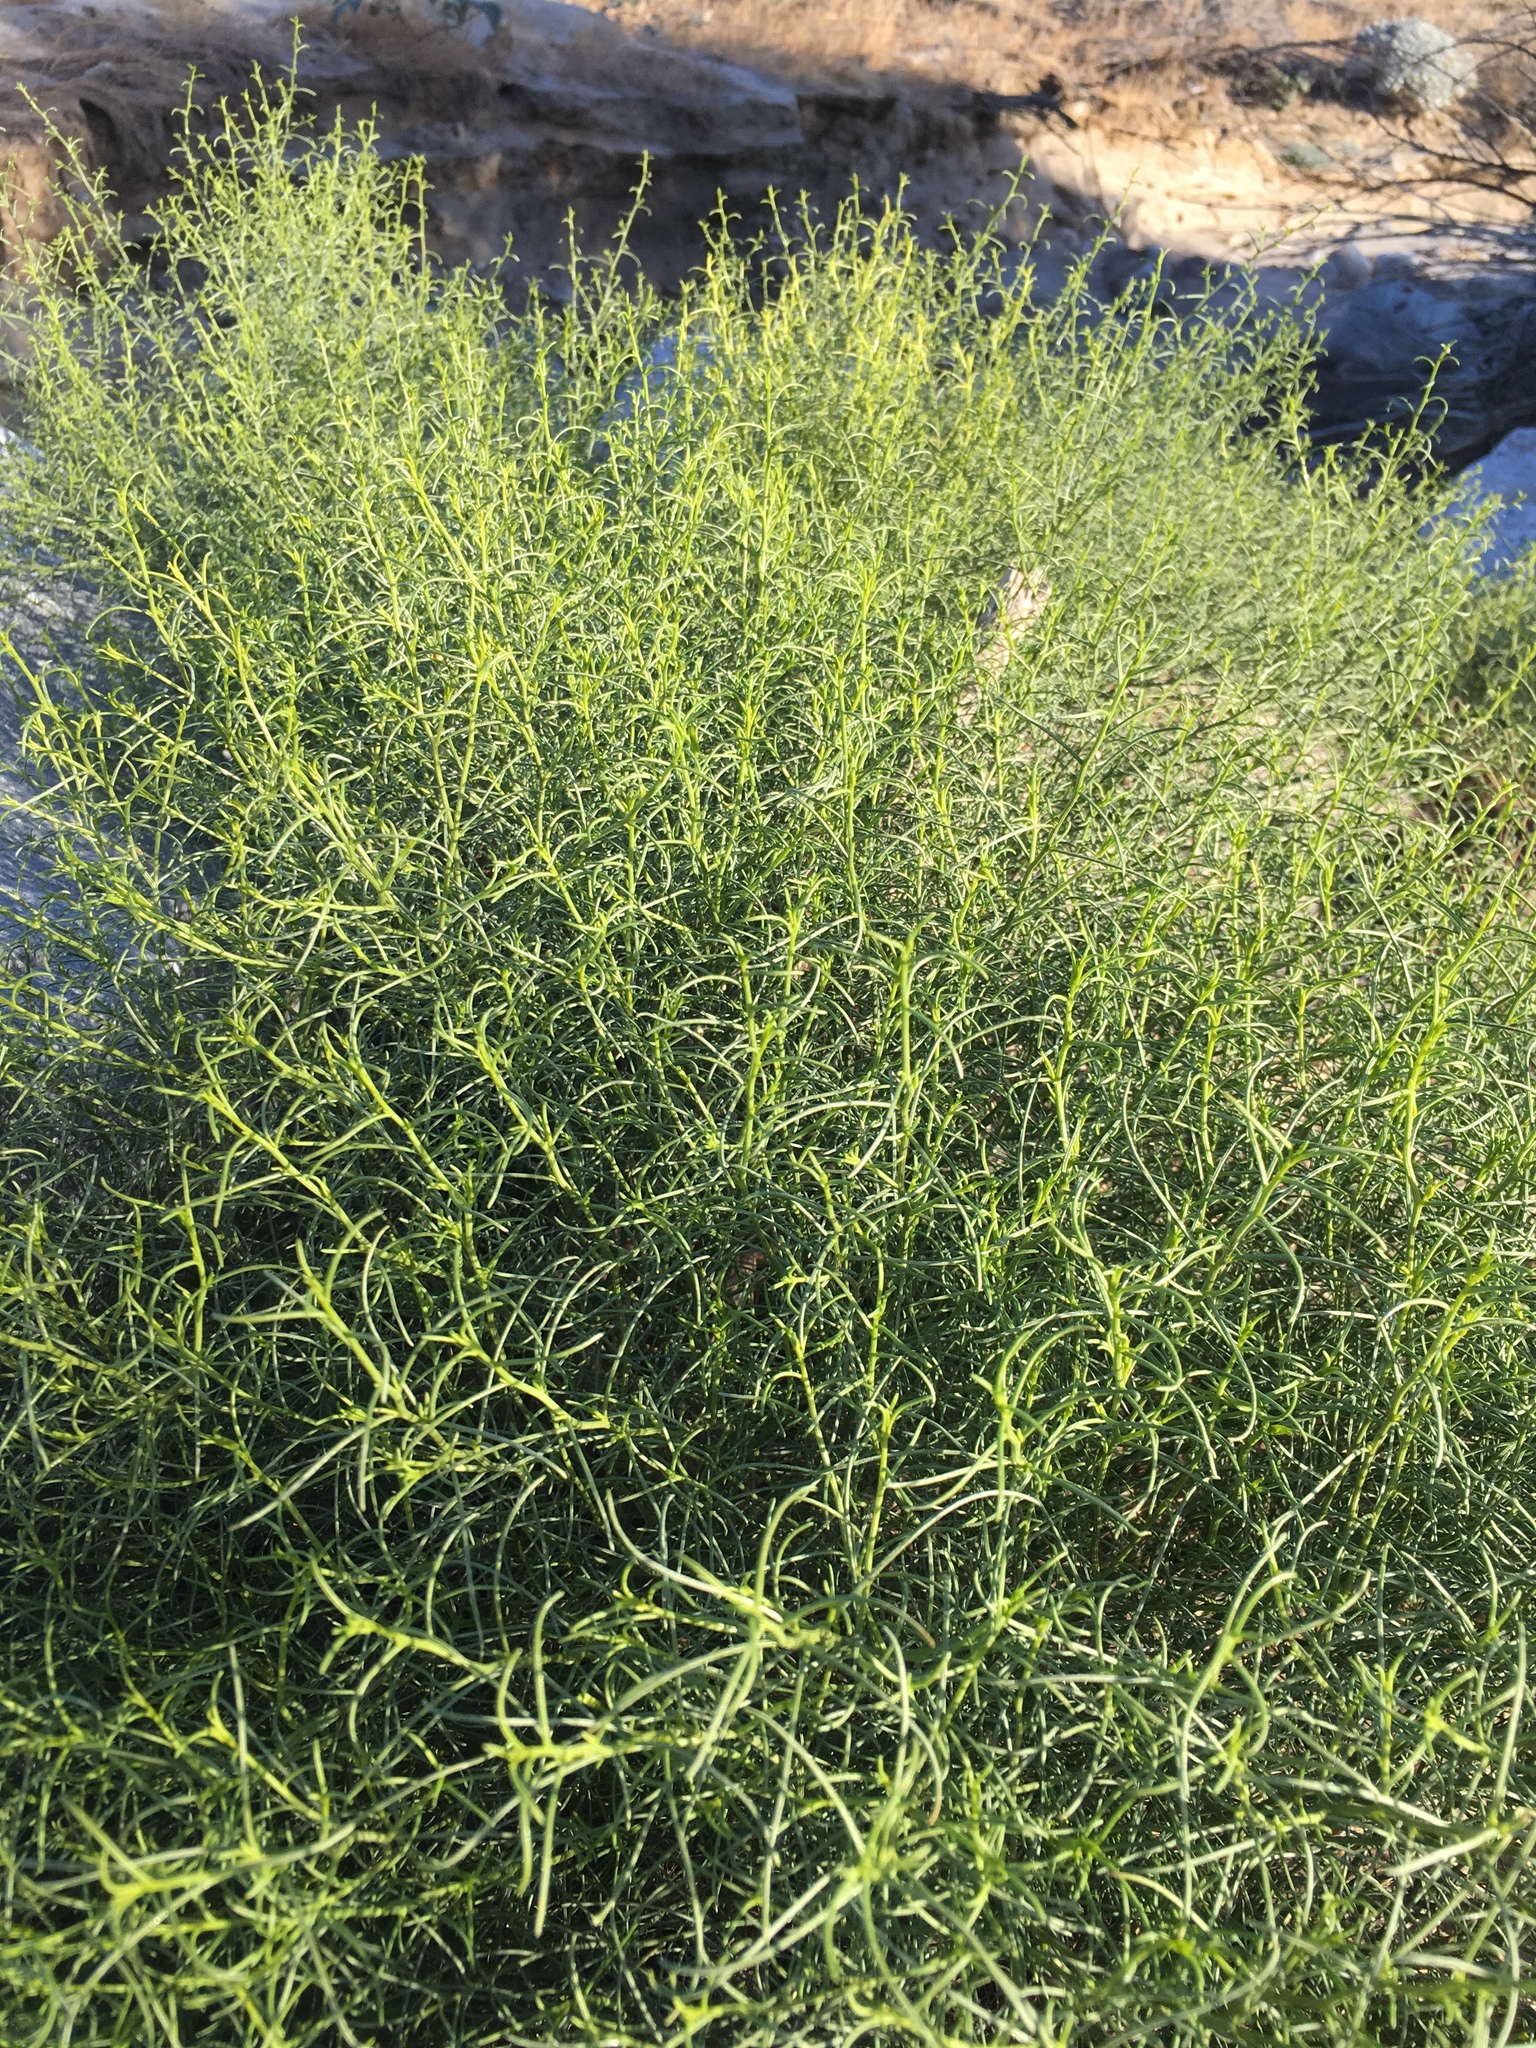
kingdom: Plantae
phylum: Tracheophyta
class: Magnoliopsida
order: Asterales
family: Asteraceae
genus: Ambrosia
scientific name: Ambrosia salsola
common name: Burrobrush
